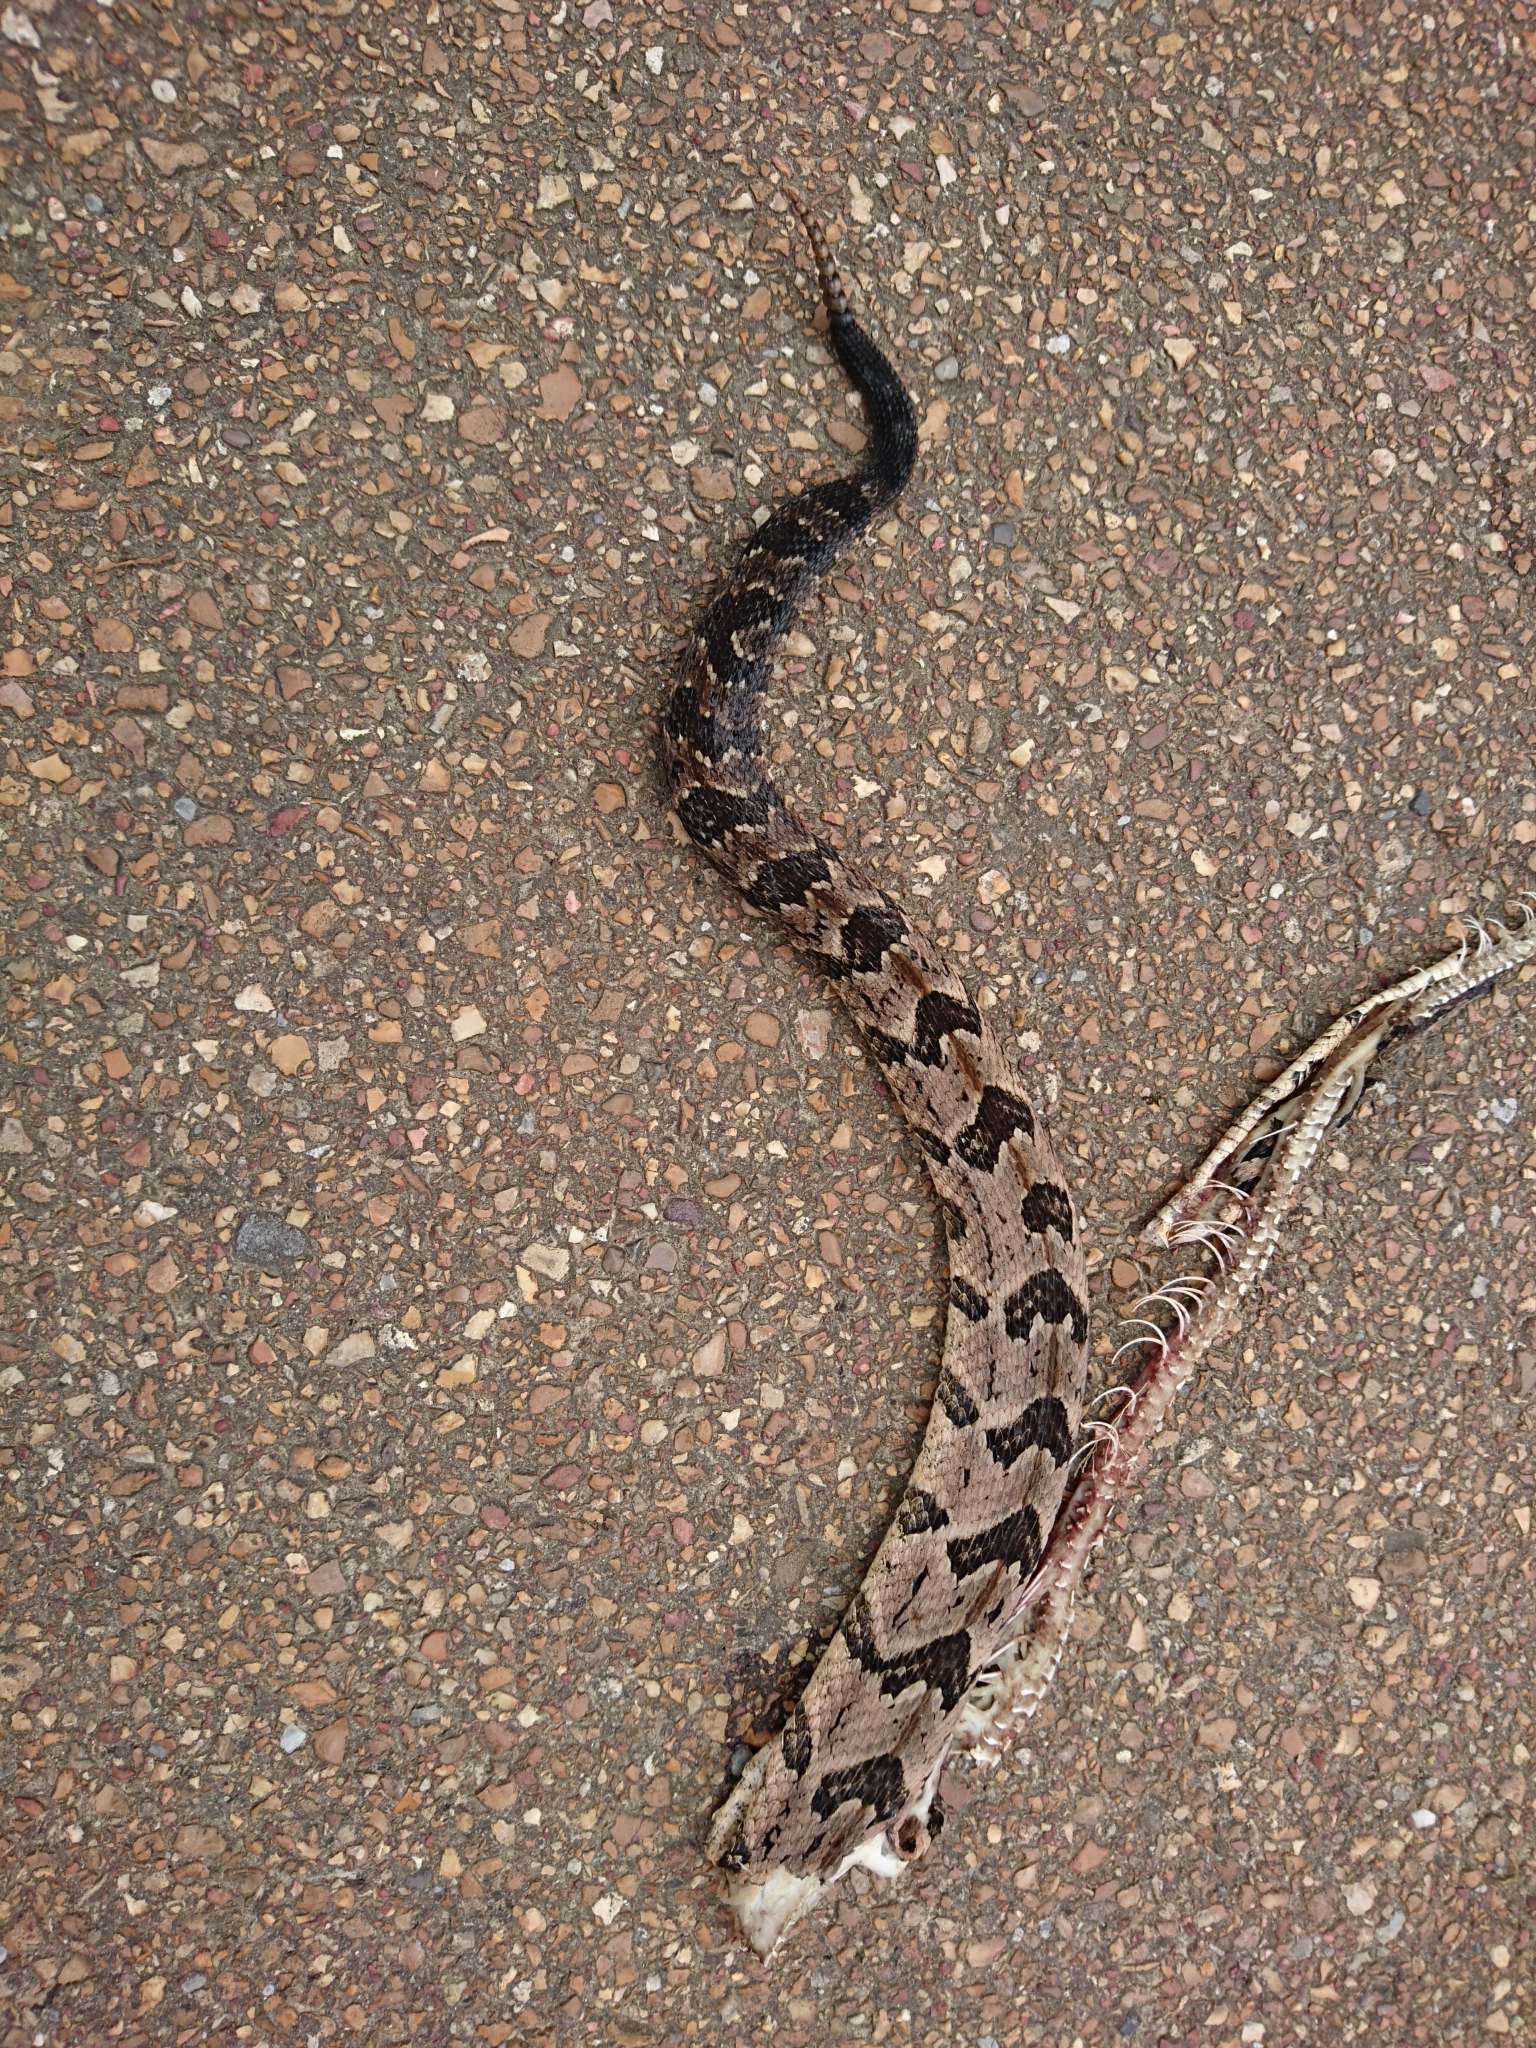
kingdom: Animalia
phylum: Chordata
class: Squamata
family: Viperidae
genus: Crotalus
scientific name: Crotalus horridus
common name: Timber rattlesnake
